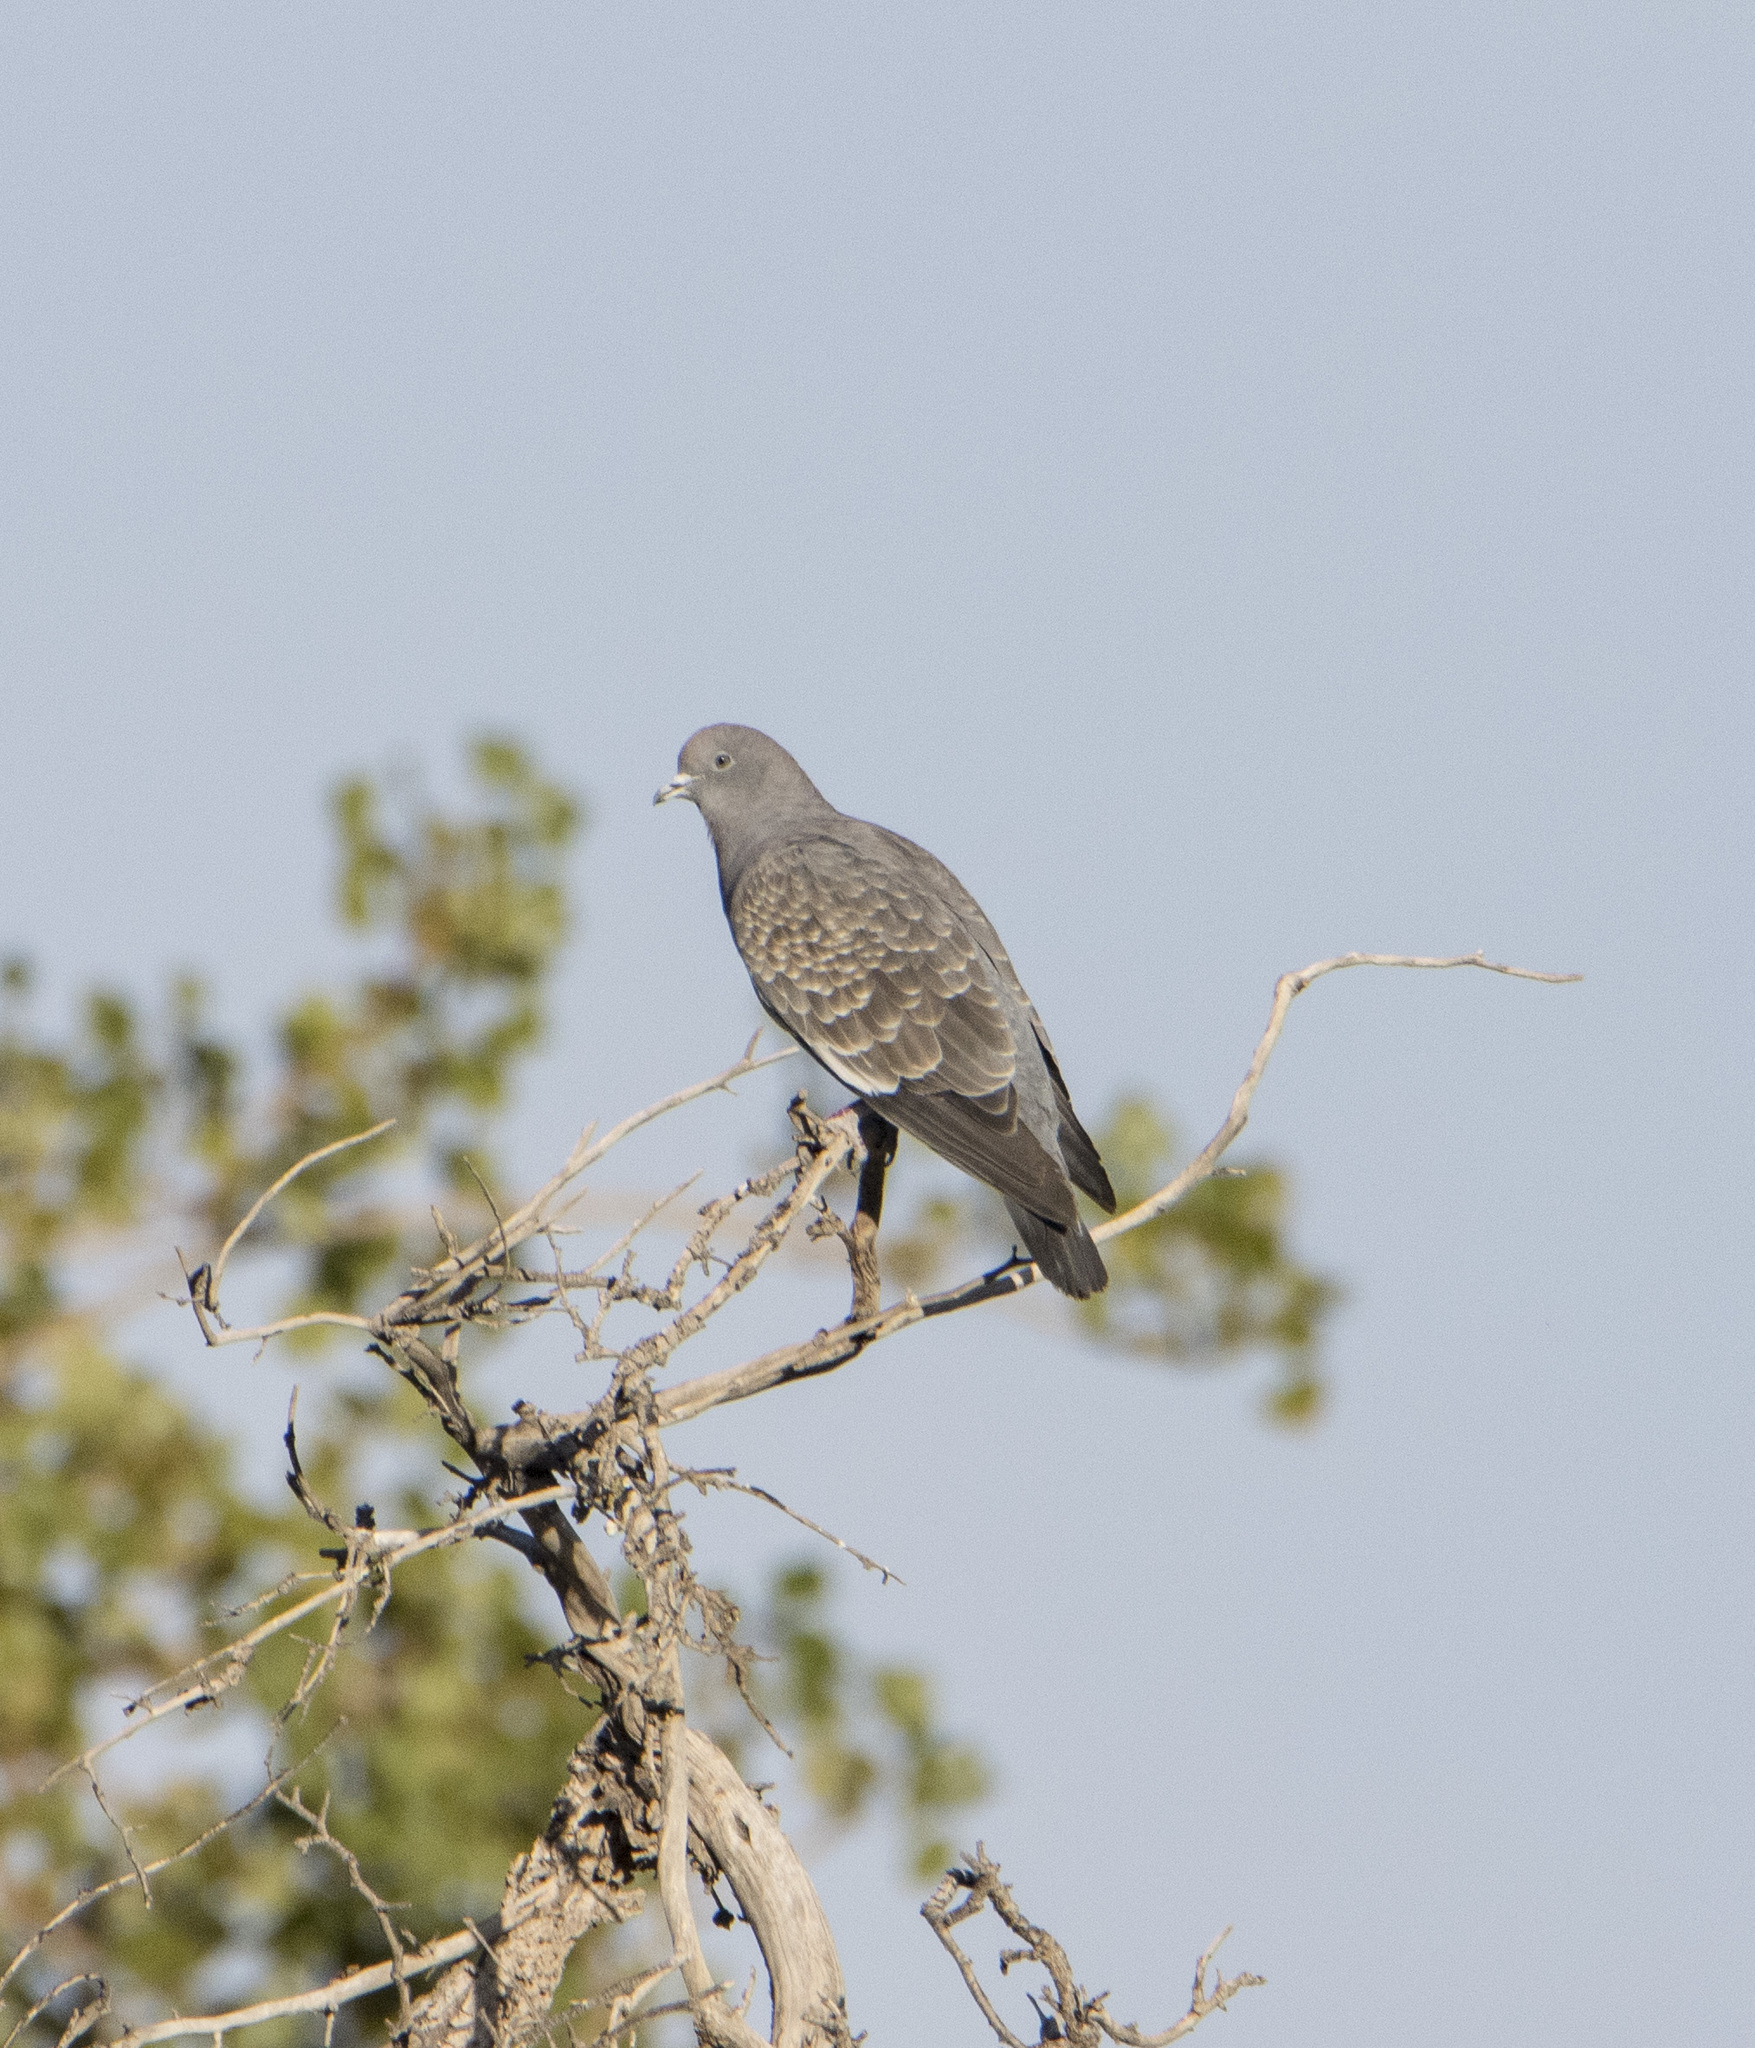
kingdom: Animalia
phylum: Chordata
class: Aves
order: Columbiformes
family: Columbidae
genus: Patagioenas
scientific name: Patagioenas maculosa
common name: Spot-winged pigeon
